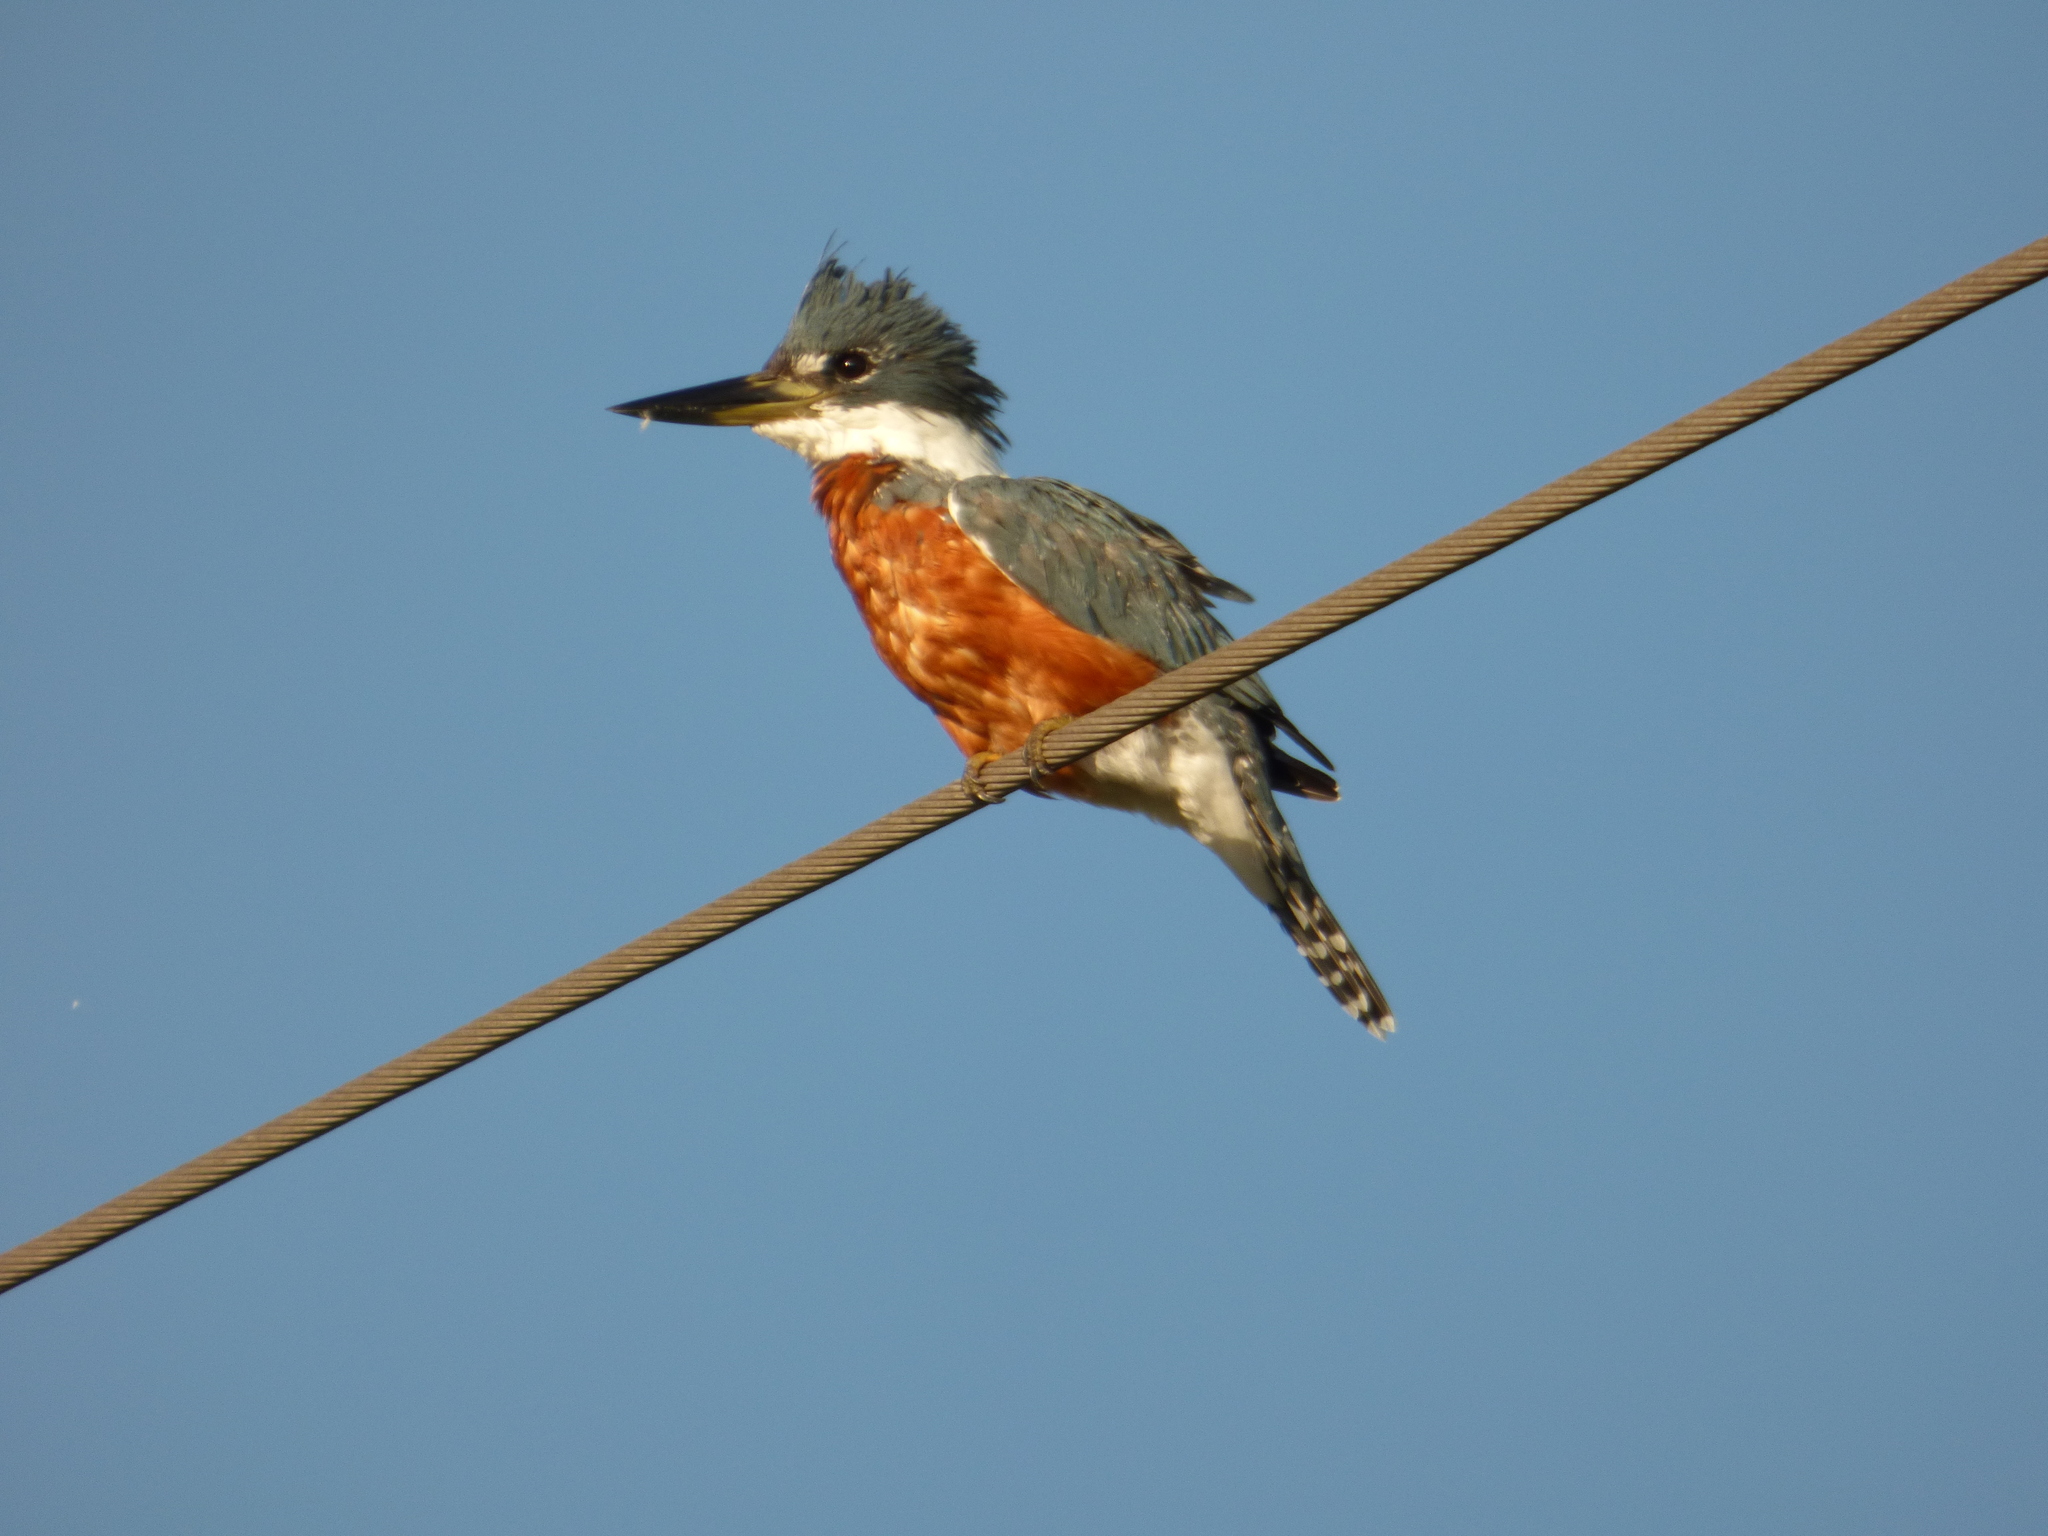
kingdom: Animalia
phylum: Chordata
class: Aves
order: Coraciiformes
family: Alcedinidae
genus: Megaceryle
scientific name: Megaceryle torquata
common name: Ringed kingfisher
